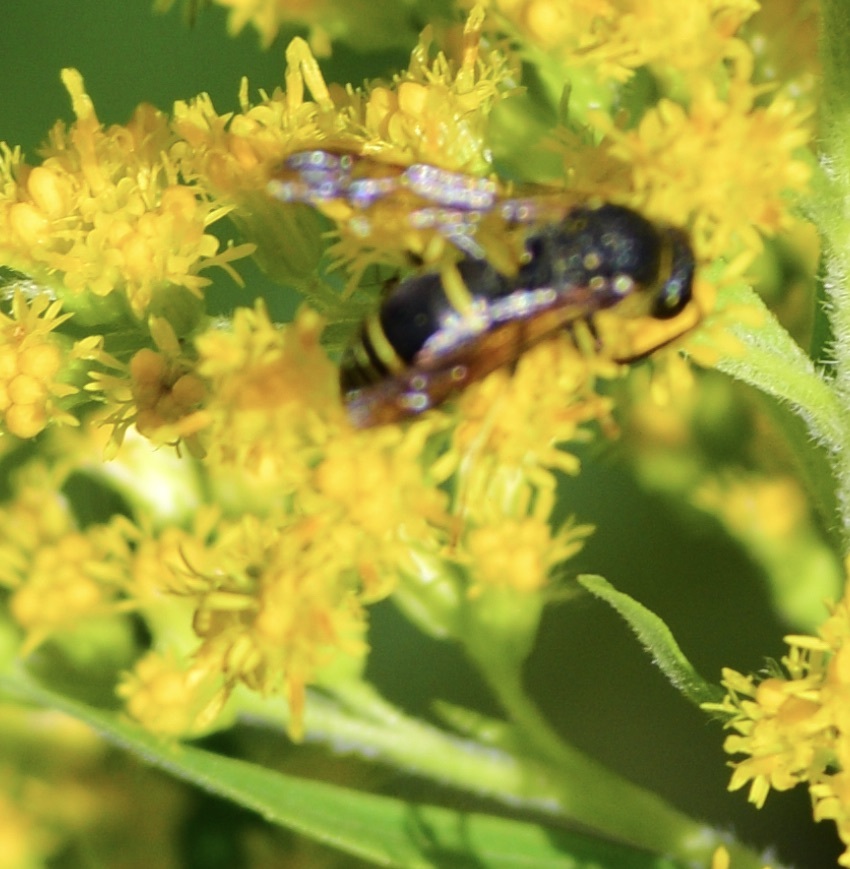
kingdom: Animalia
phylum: Arthropoda
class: Insecta
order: Hymenoptera
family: Vespidae
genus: Ancistrocerus
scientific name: Ancistrocerus
